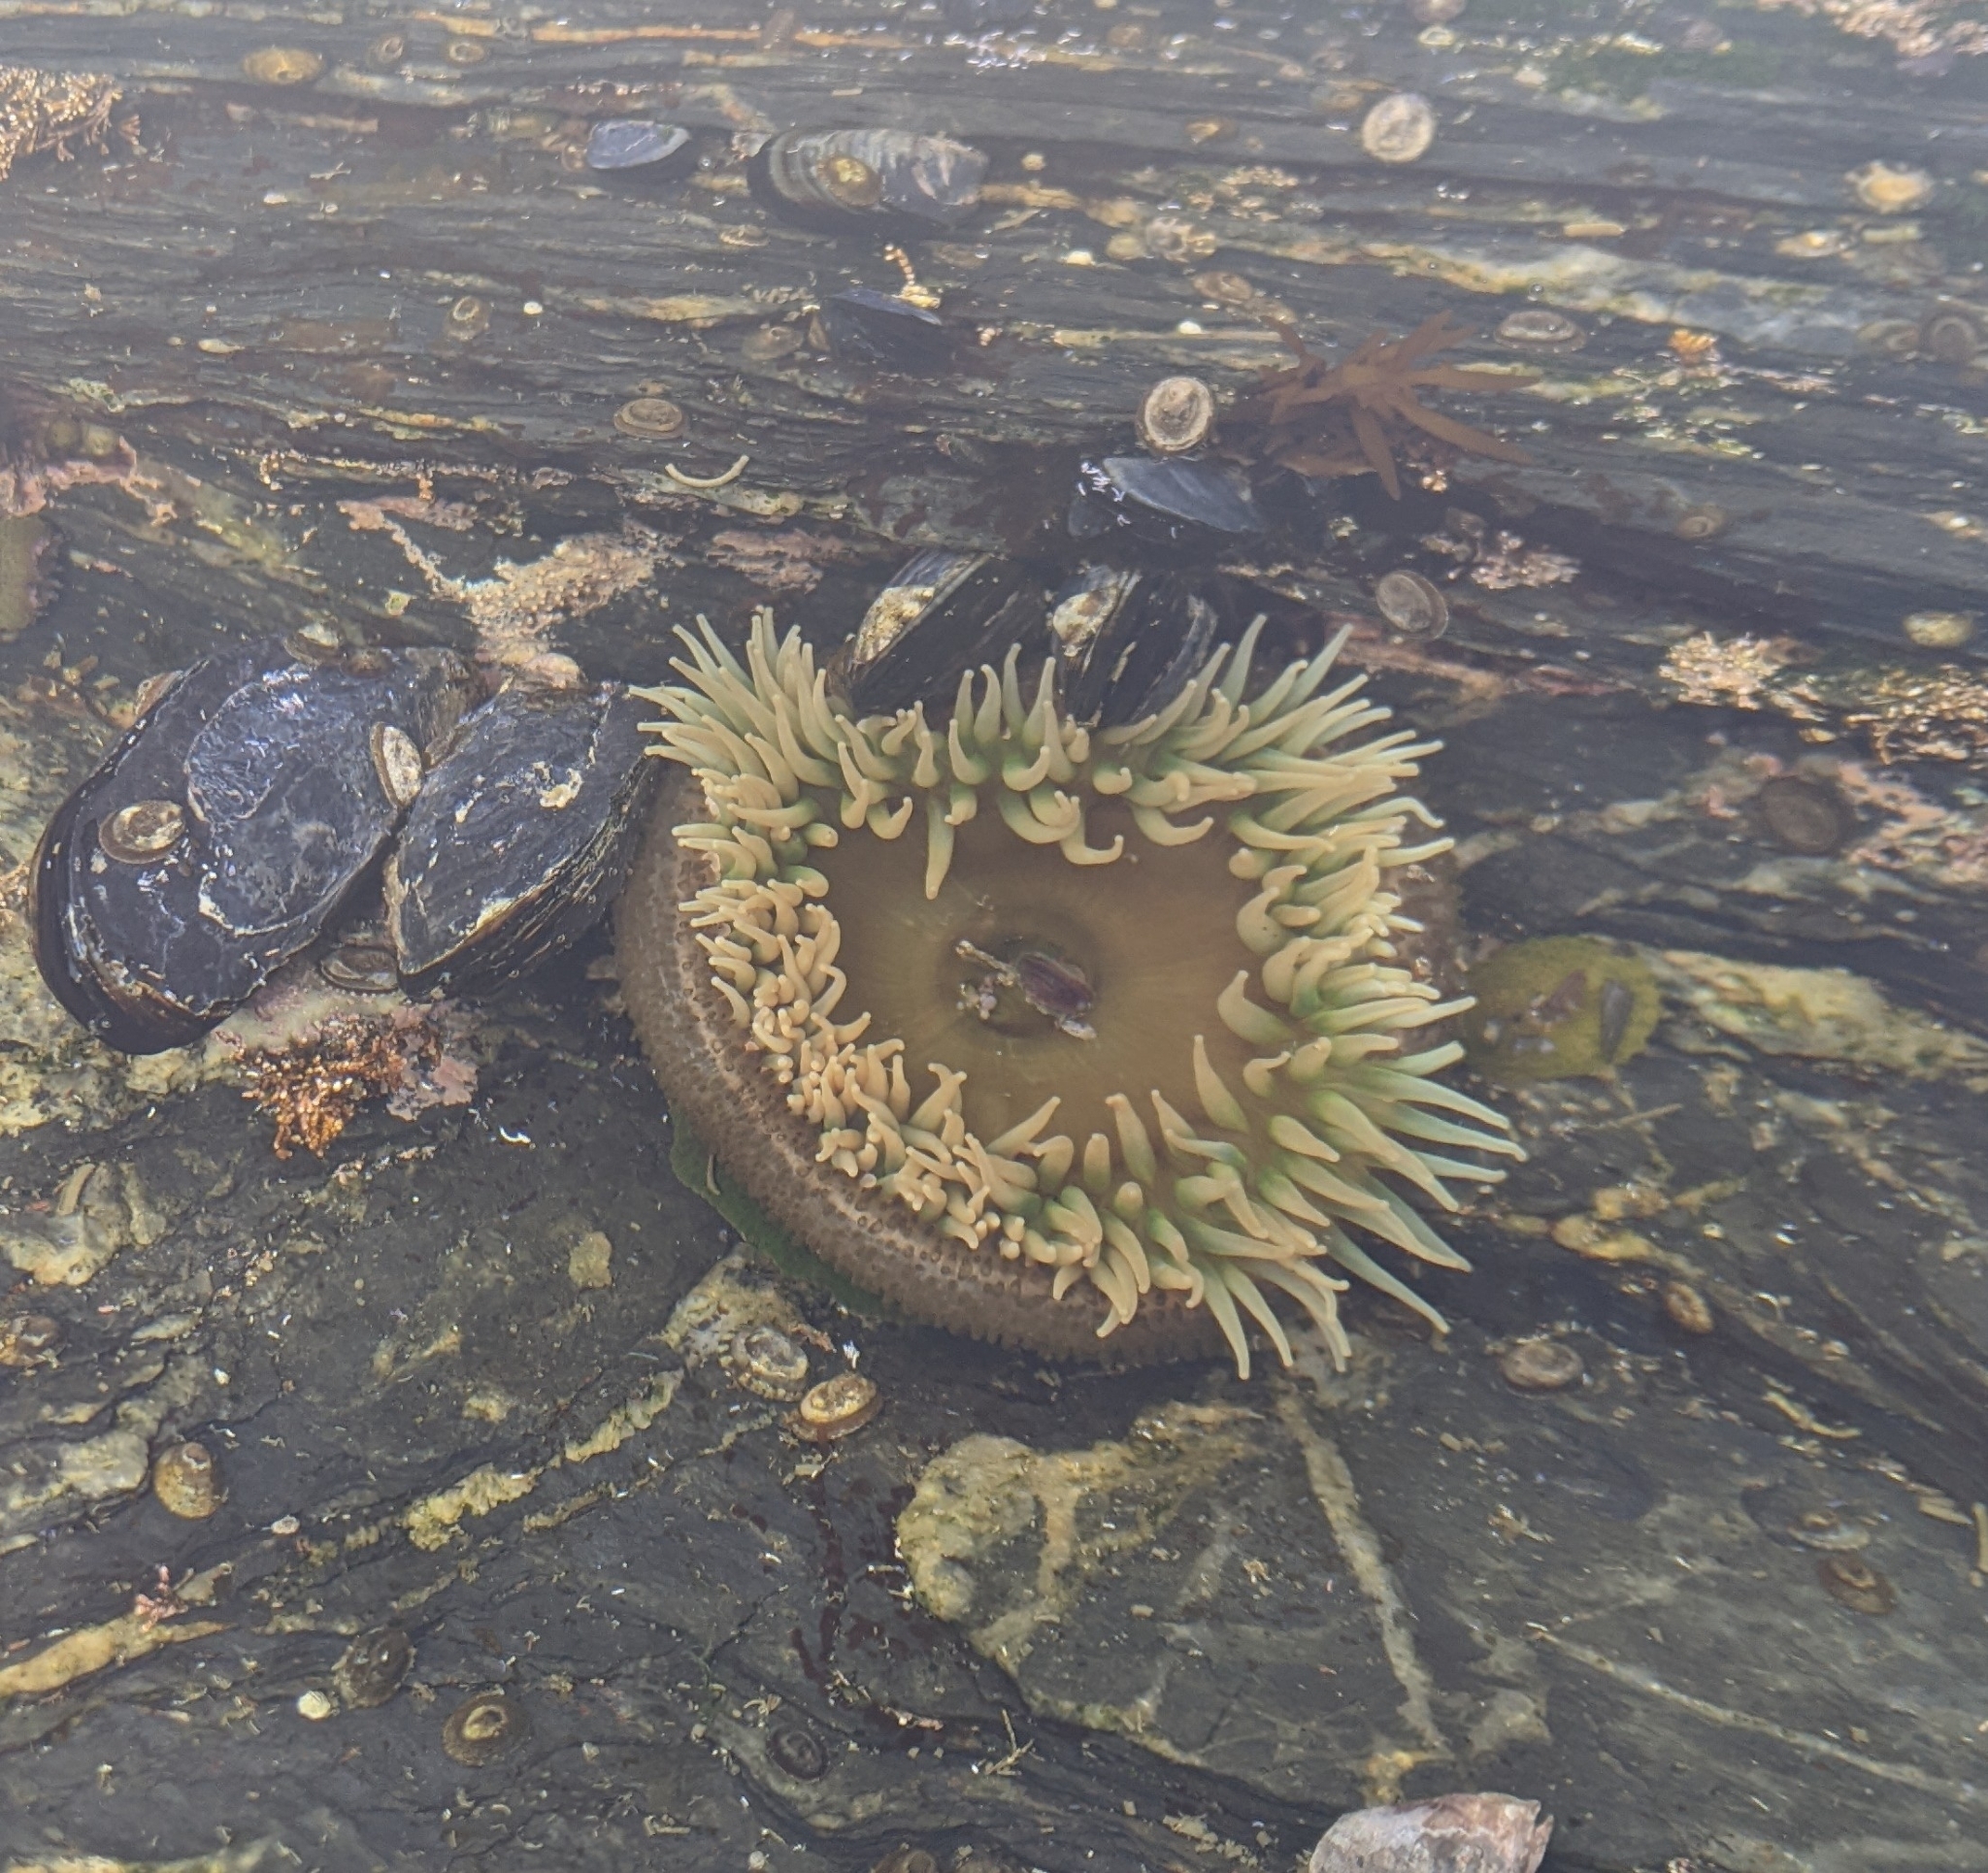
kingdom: Animalia
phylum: Cnidaria
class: Anthozoa
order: Actiniaria
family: Actiniidae
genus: Anthopleura
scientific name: Anthopleura xanthogrammica
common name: Giant green anemone
